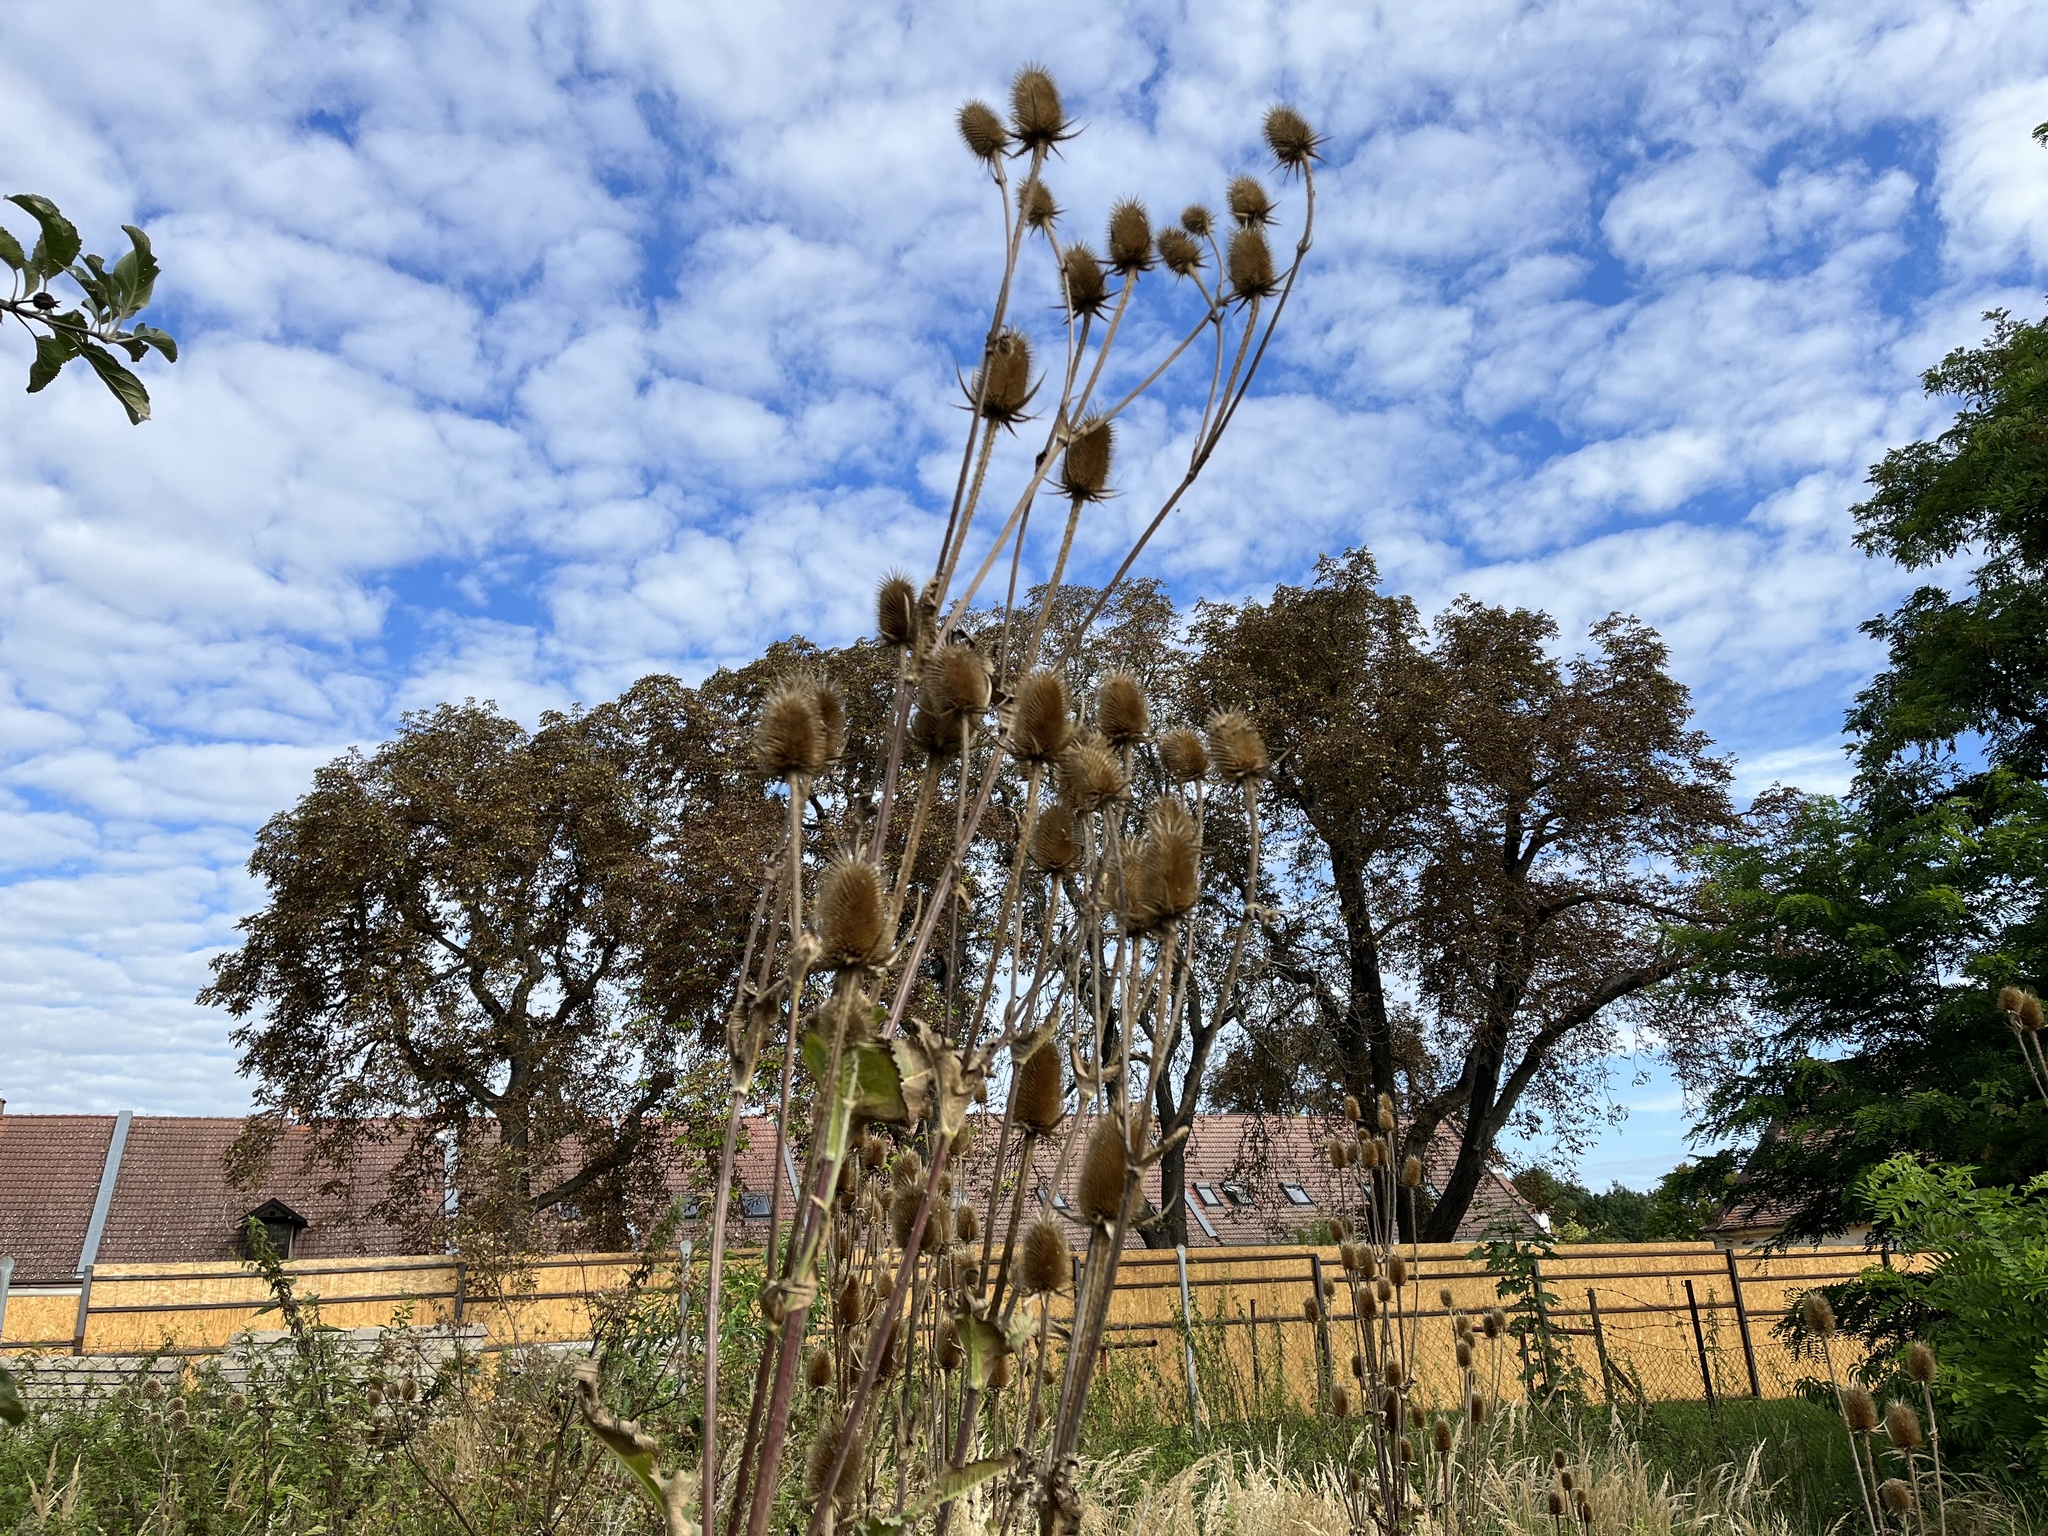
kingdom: Plantae
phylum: Tracheophyta
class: Magnoliopsida
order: Dipsacales
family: Caprifoliaceae
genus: Dipsacus
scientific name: Dipsacus laciniatus
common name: Cut-leaved teasel
